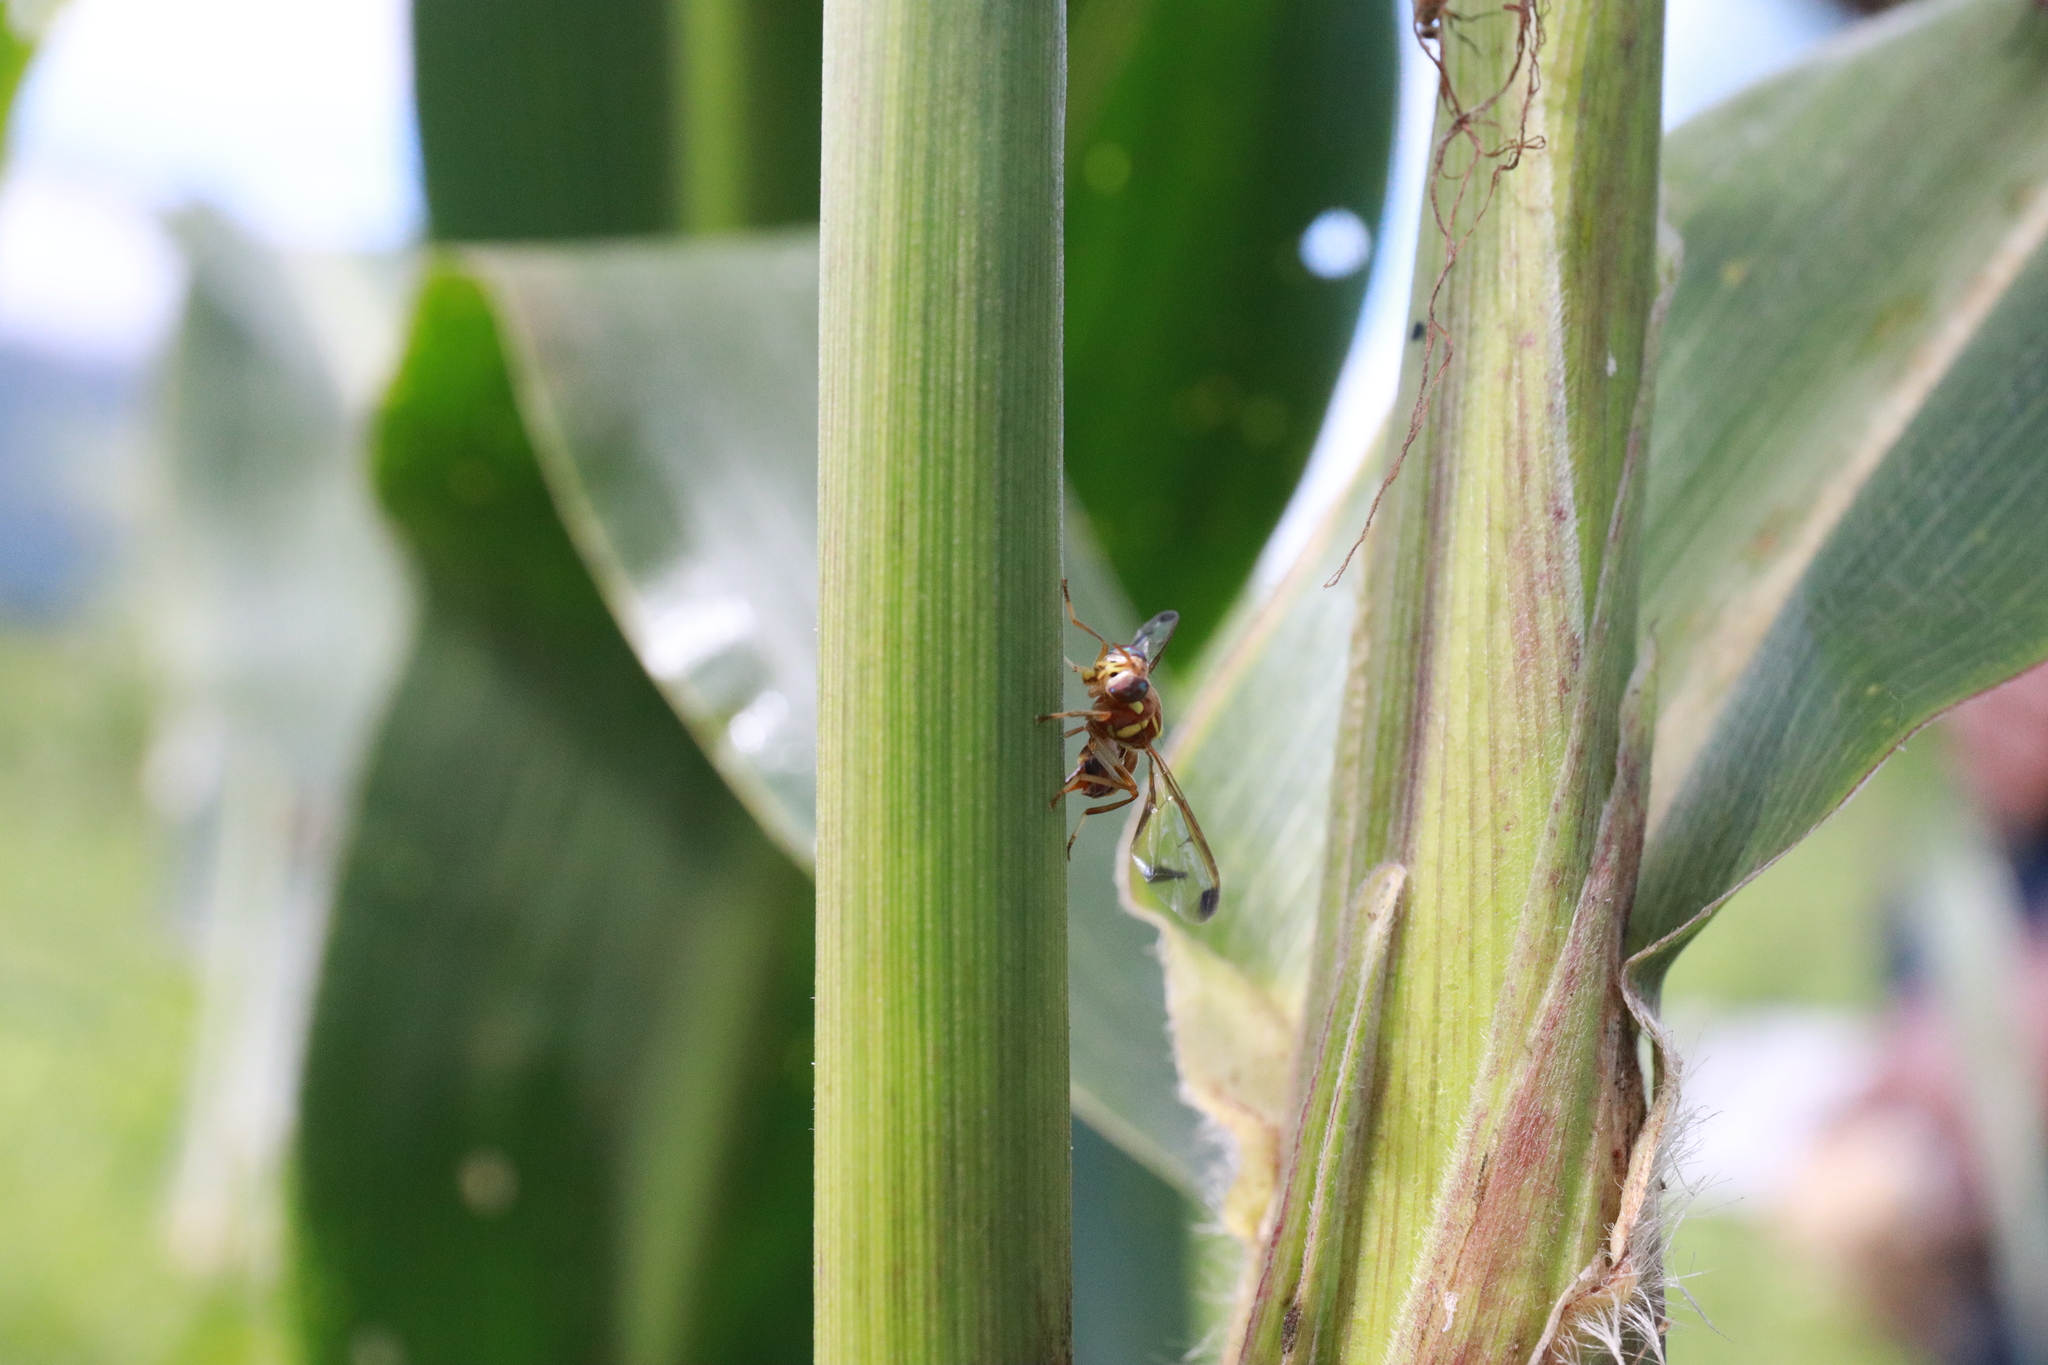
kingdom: Animalia
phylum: Arthropoda
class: Insecta
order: Diptera
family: Tephritidae
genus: Bactrocera
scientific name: Bactrocera cucurbitae
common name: Melon fly
